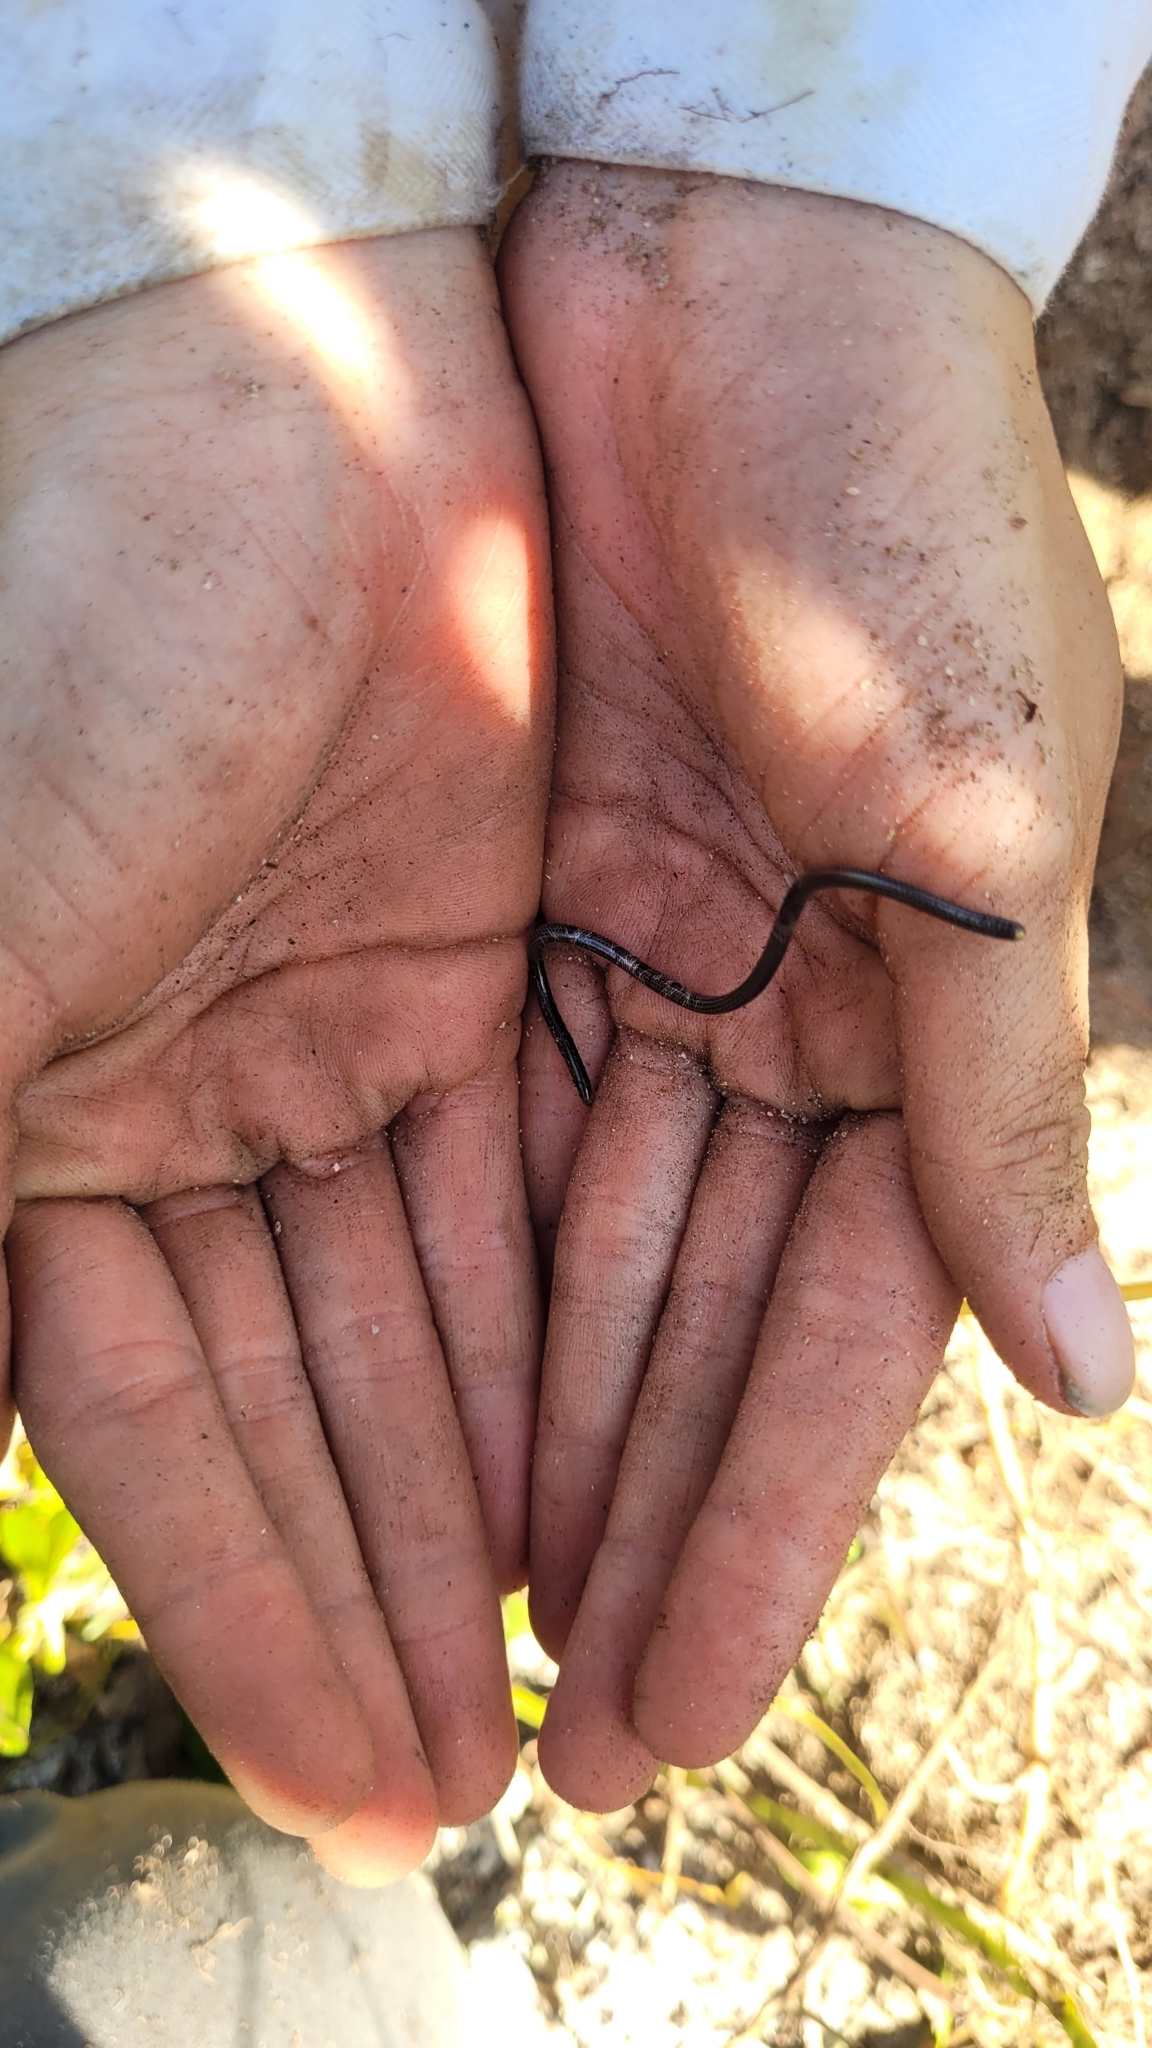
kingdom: Animalia
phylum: Chordata
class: Squamata
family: Leptotyphlopidae
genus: Epictia
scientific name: Epictia magnamaculata
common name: Black blind snake
